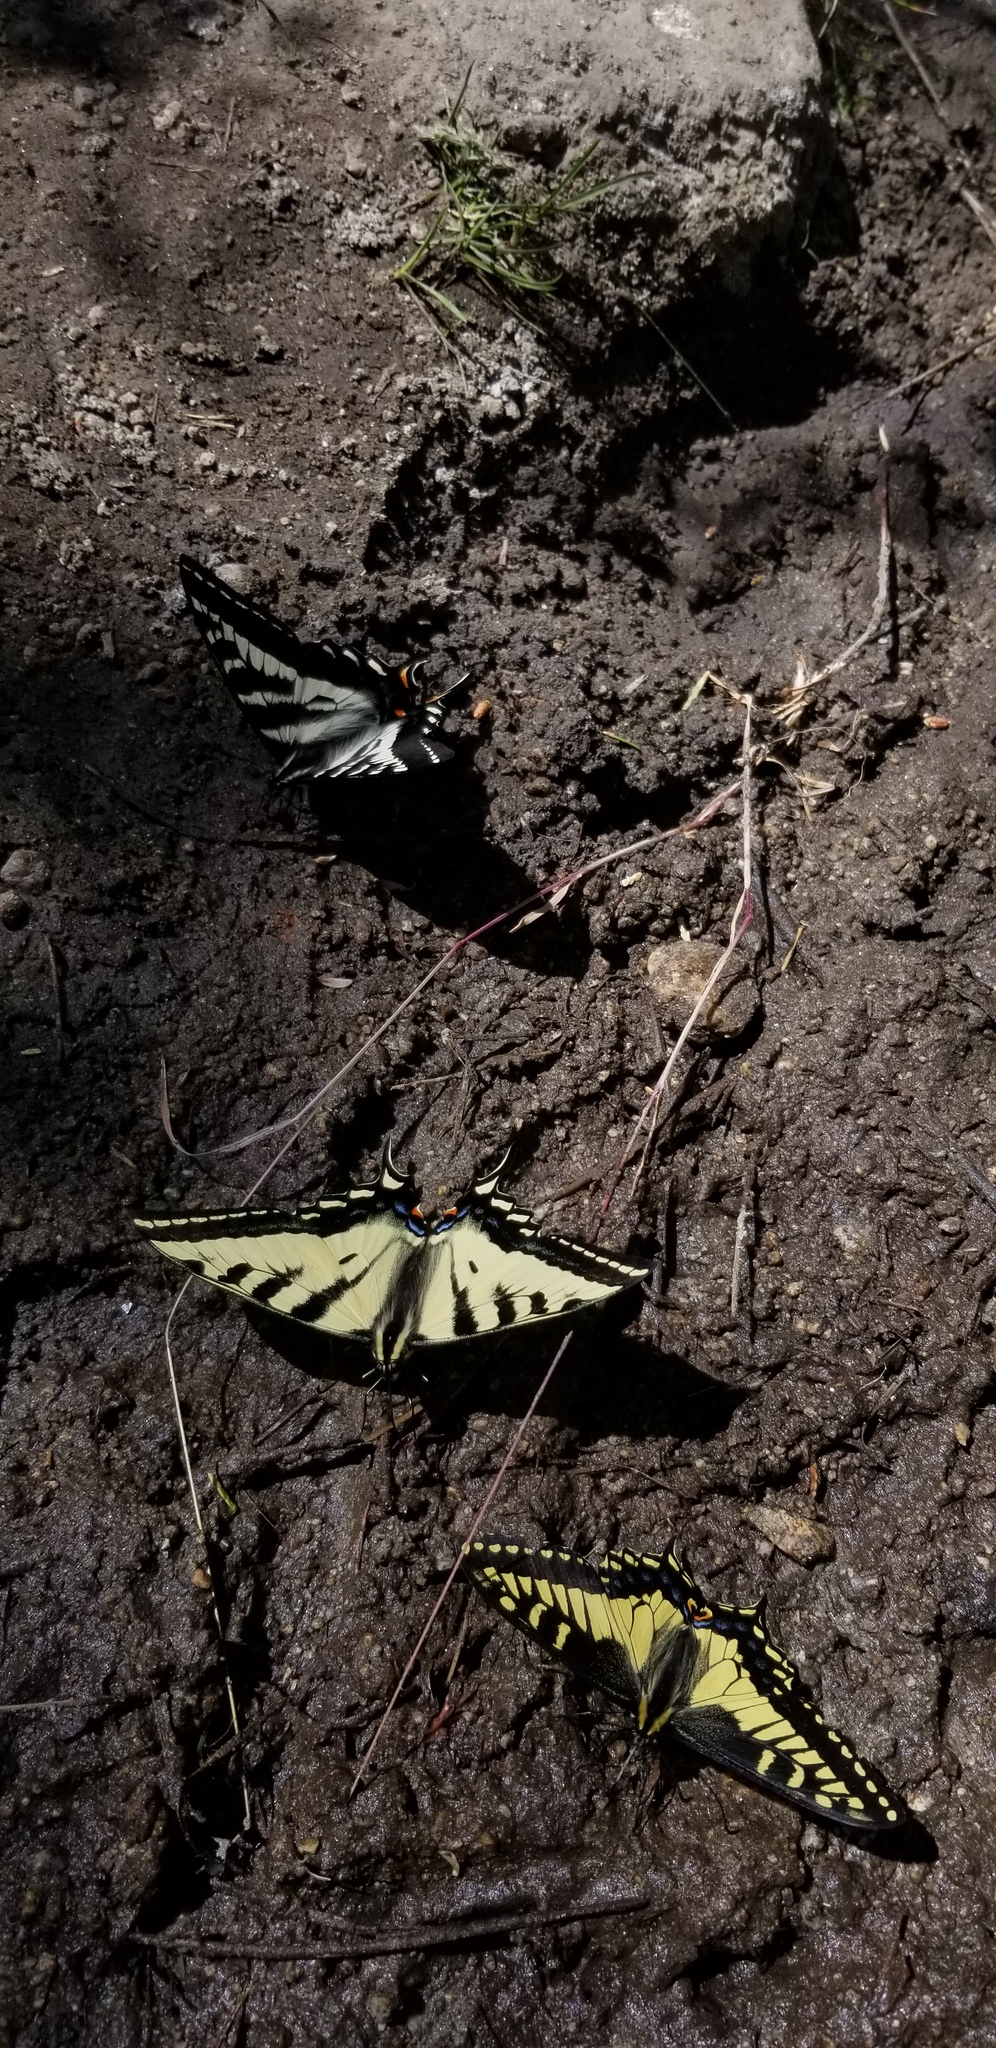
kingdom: Animalia
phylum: Arthropoda
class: Insecta
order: Lepidoptera
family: Papilionidae
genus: Papilio
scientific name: Papilio rutulus
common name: Western tiger swallowtail
